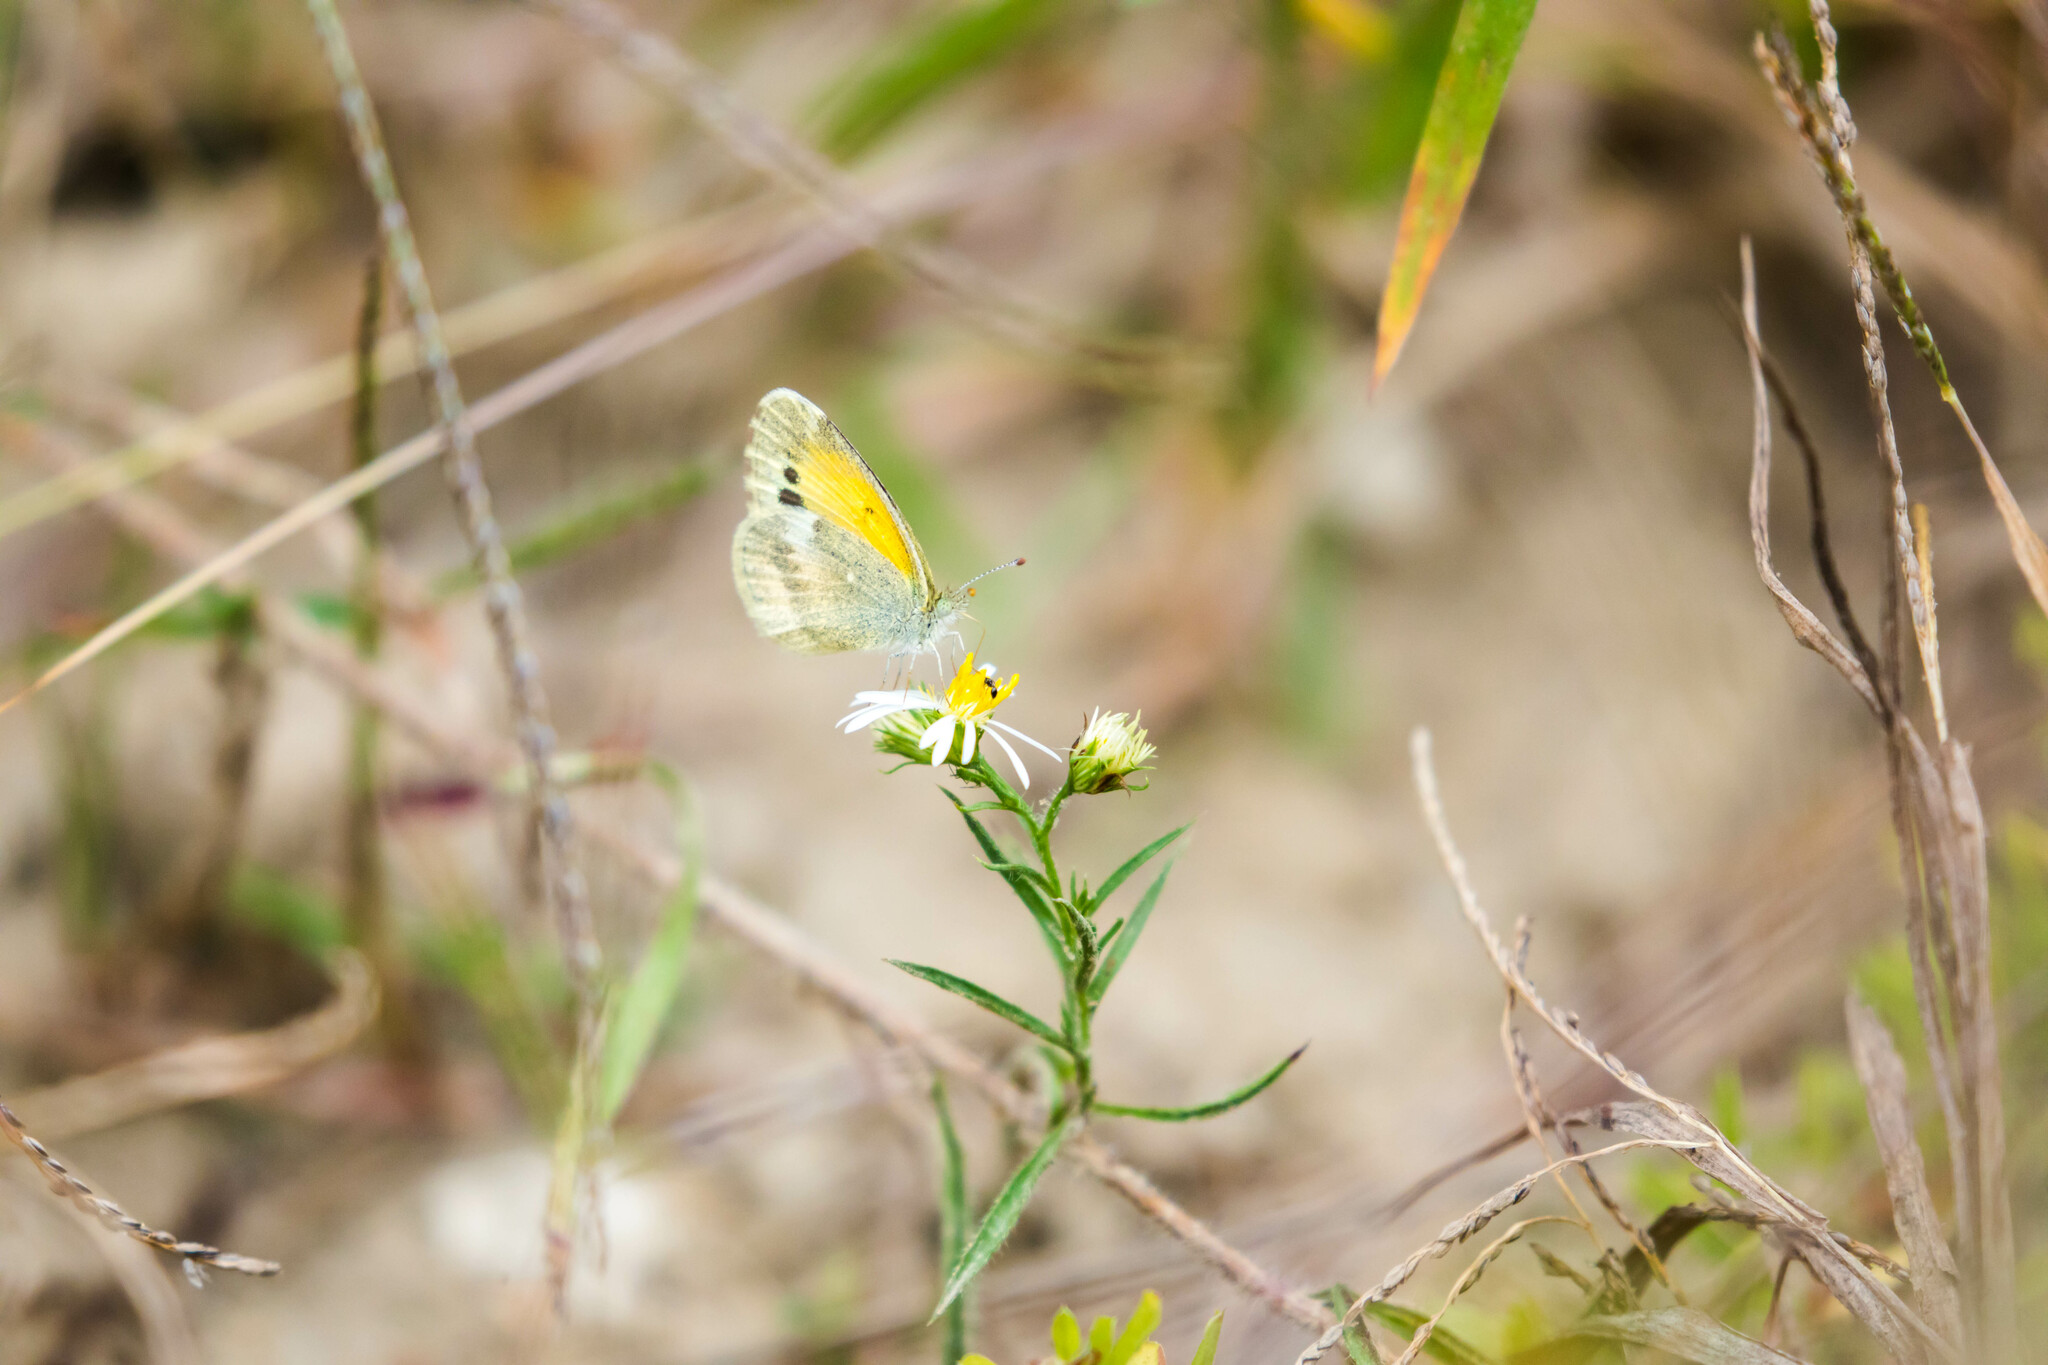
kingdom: Animalia
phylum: Arthropoda
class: Insecta
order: Lepidoptera
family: Pieridae
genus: Nathalis
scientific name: Nathalis iole
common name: Dainty sulphur
